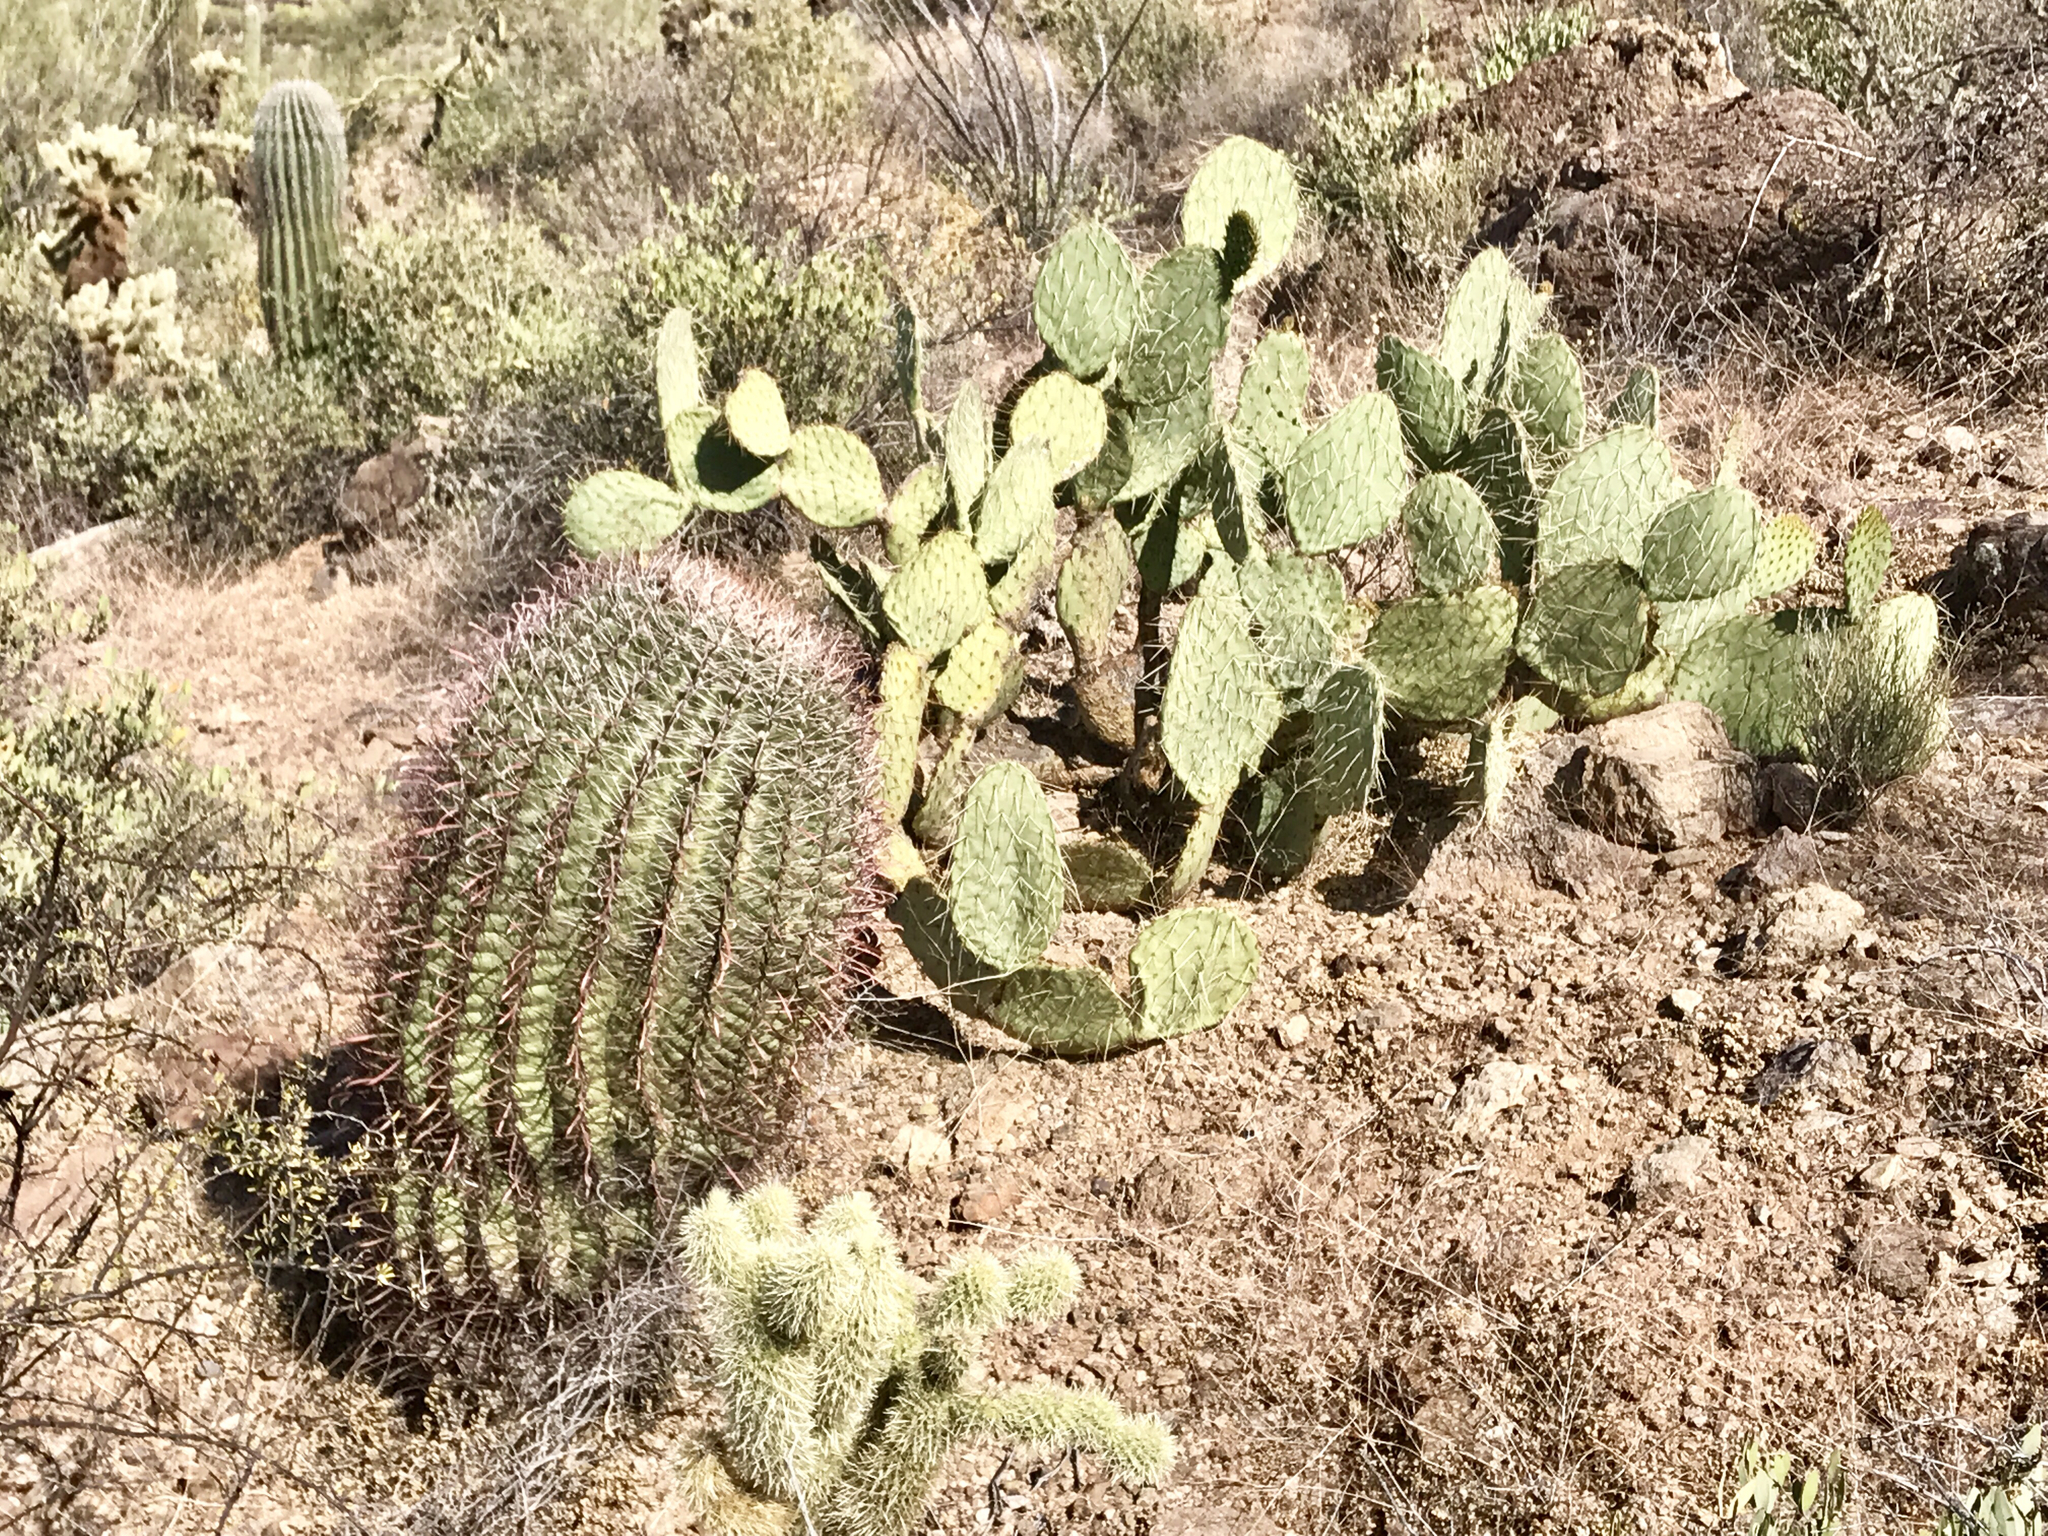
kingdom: Plantae
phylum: Tracheophyta
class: Magnoliopsida
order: Caryophyllales
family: Cactaceae
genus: Opuntia
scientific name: Opuntia engelmannii
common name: Cactus-apple
